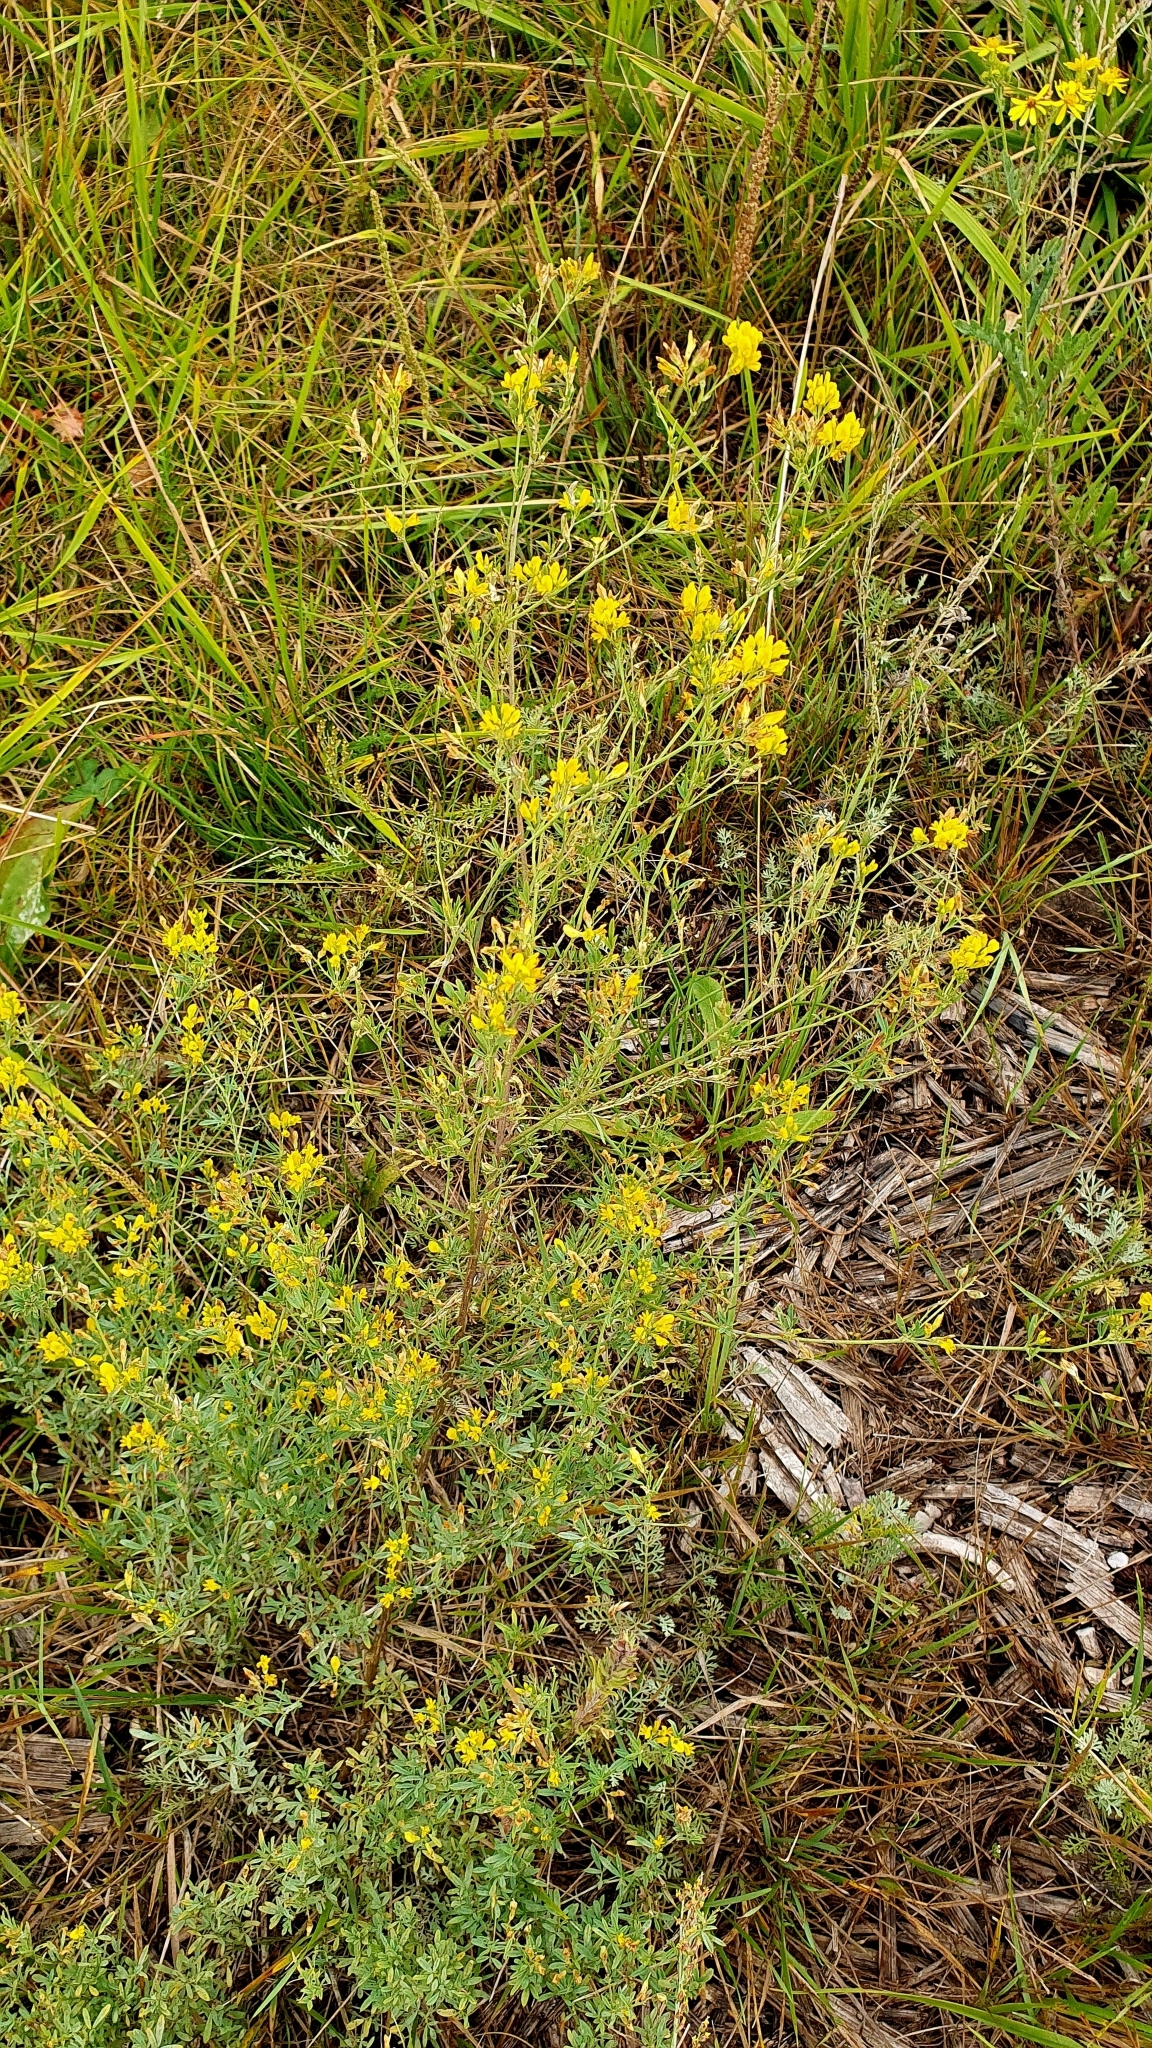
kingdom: Plantae
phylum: Tracheophyta
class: Magnoliopsida
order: Fabales
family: Fabaceae
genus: Medicago
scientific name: Medicago falcata
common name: Sickle medick
